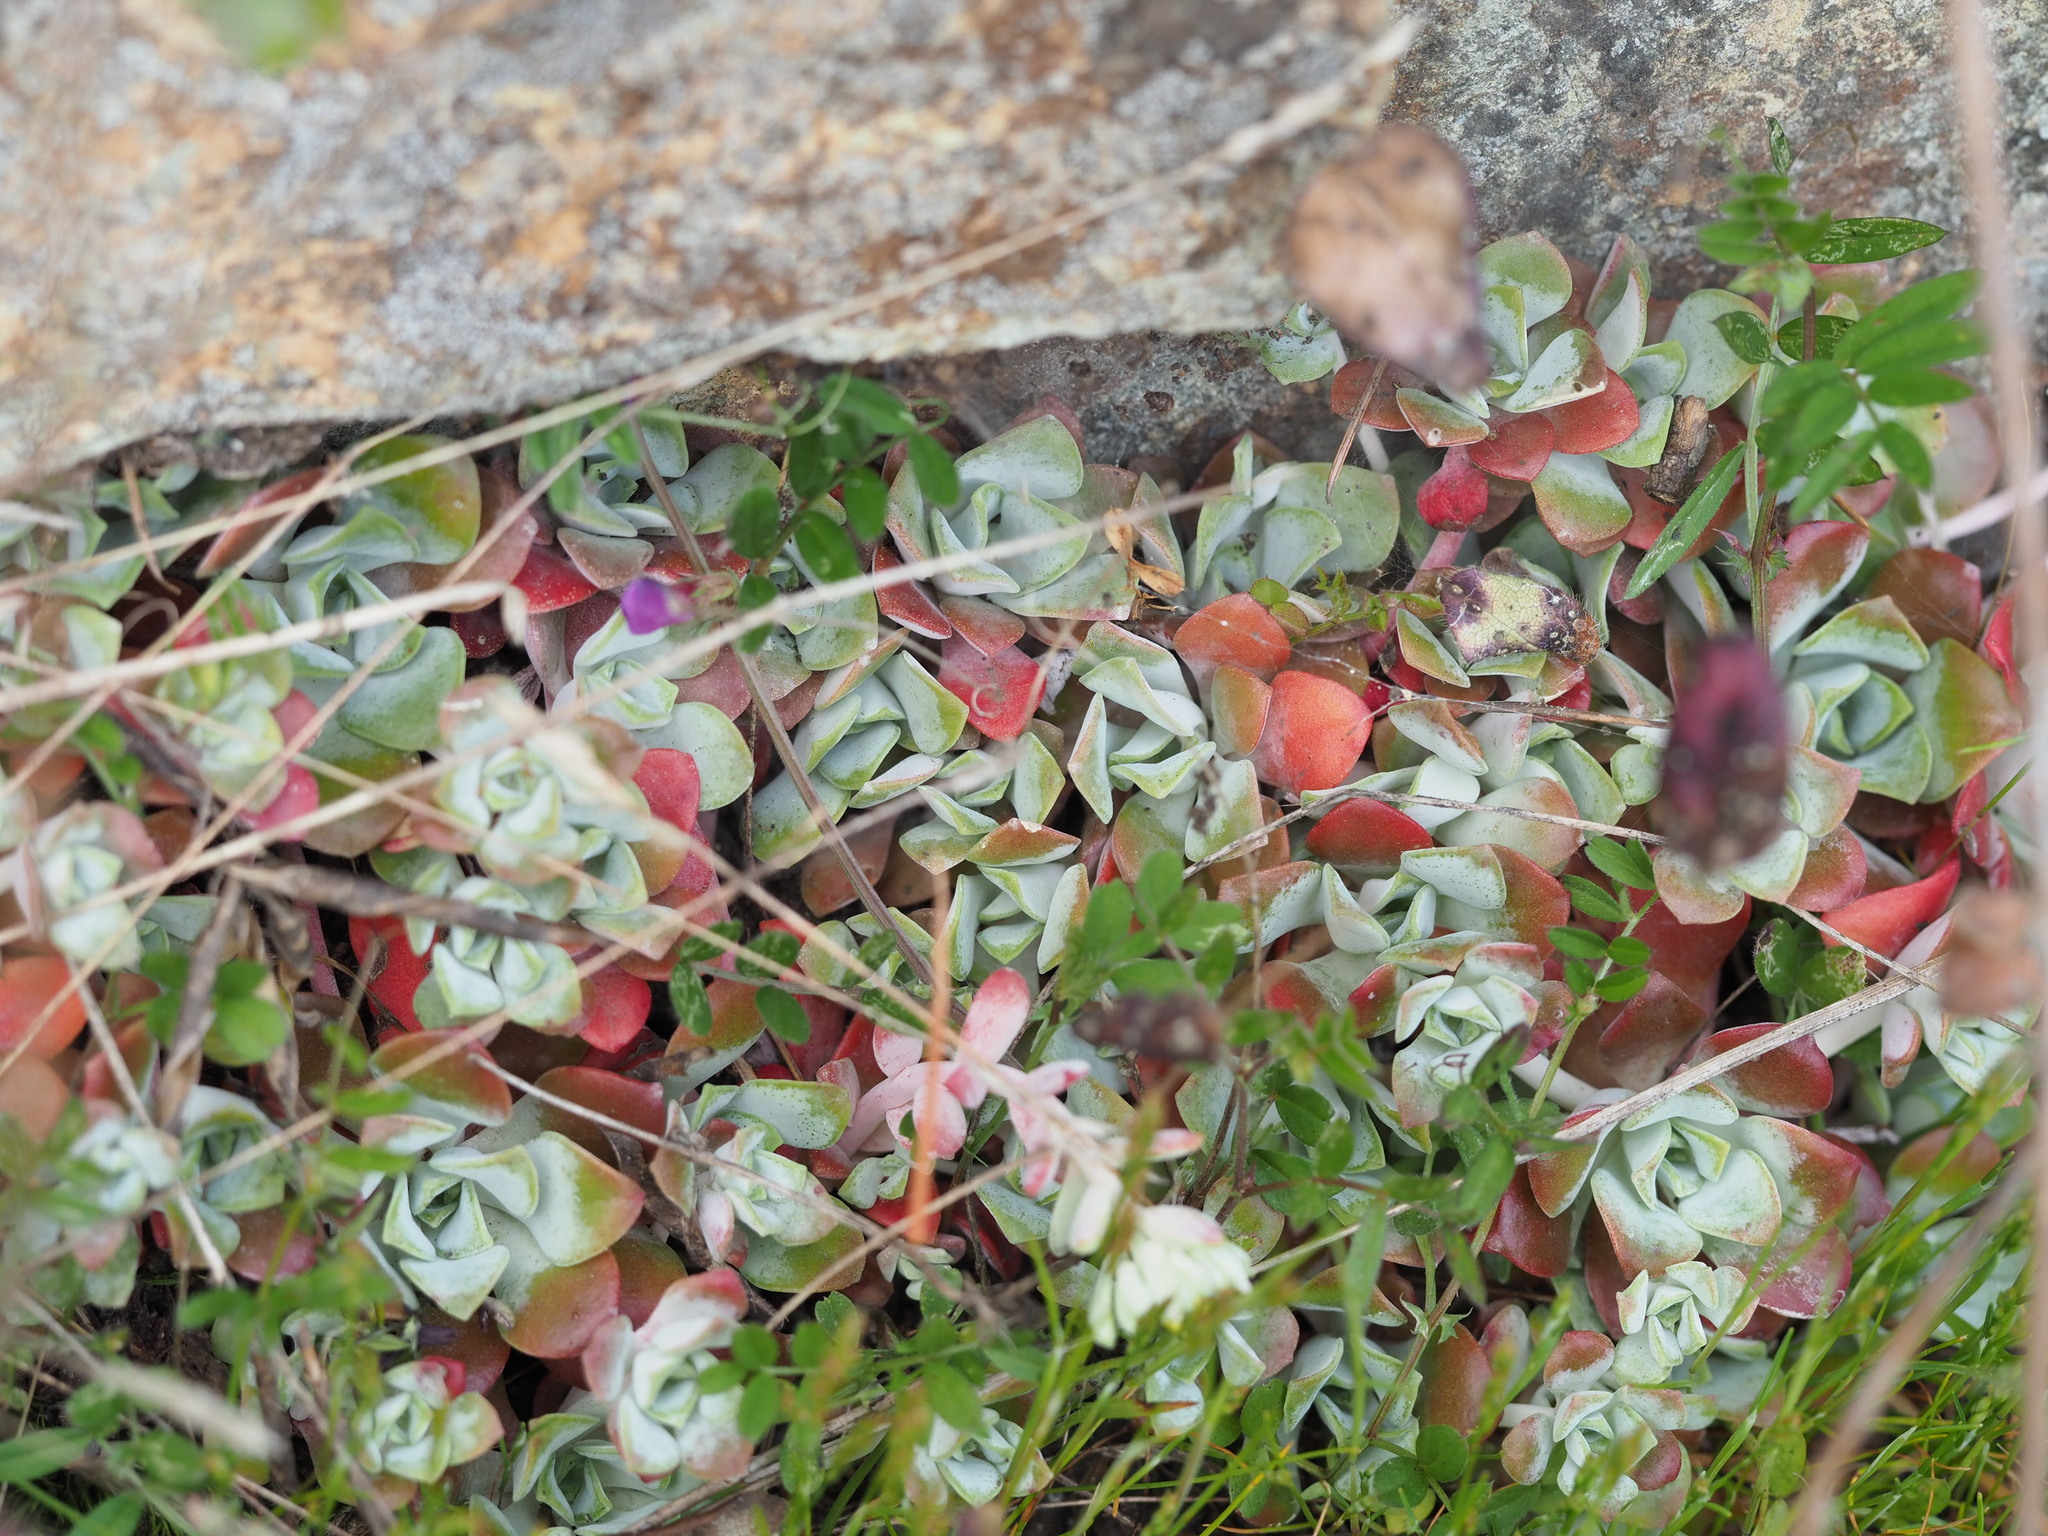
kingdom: Plantae
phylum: Tracheophyta
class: Magnoliopsida
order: Saxifragales
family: Crassulaceae
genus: Sedum
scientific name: Sedum spathulifolium
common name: Colorado stonecrop
